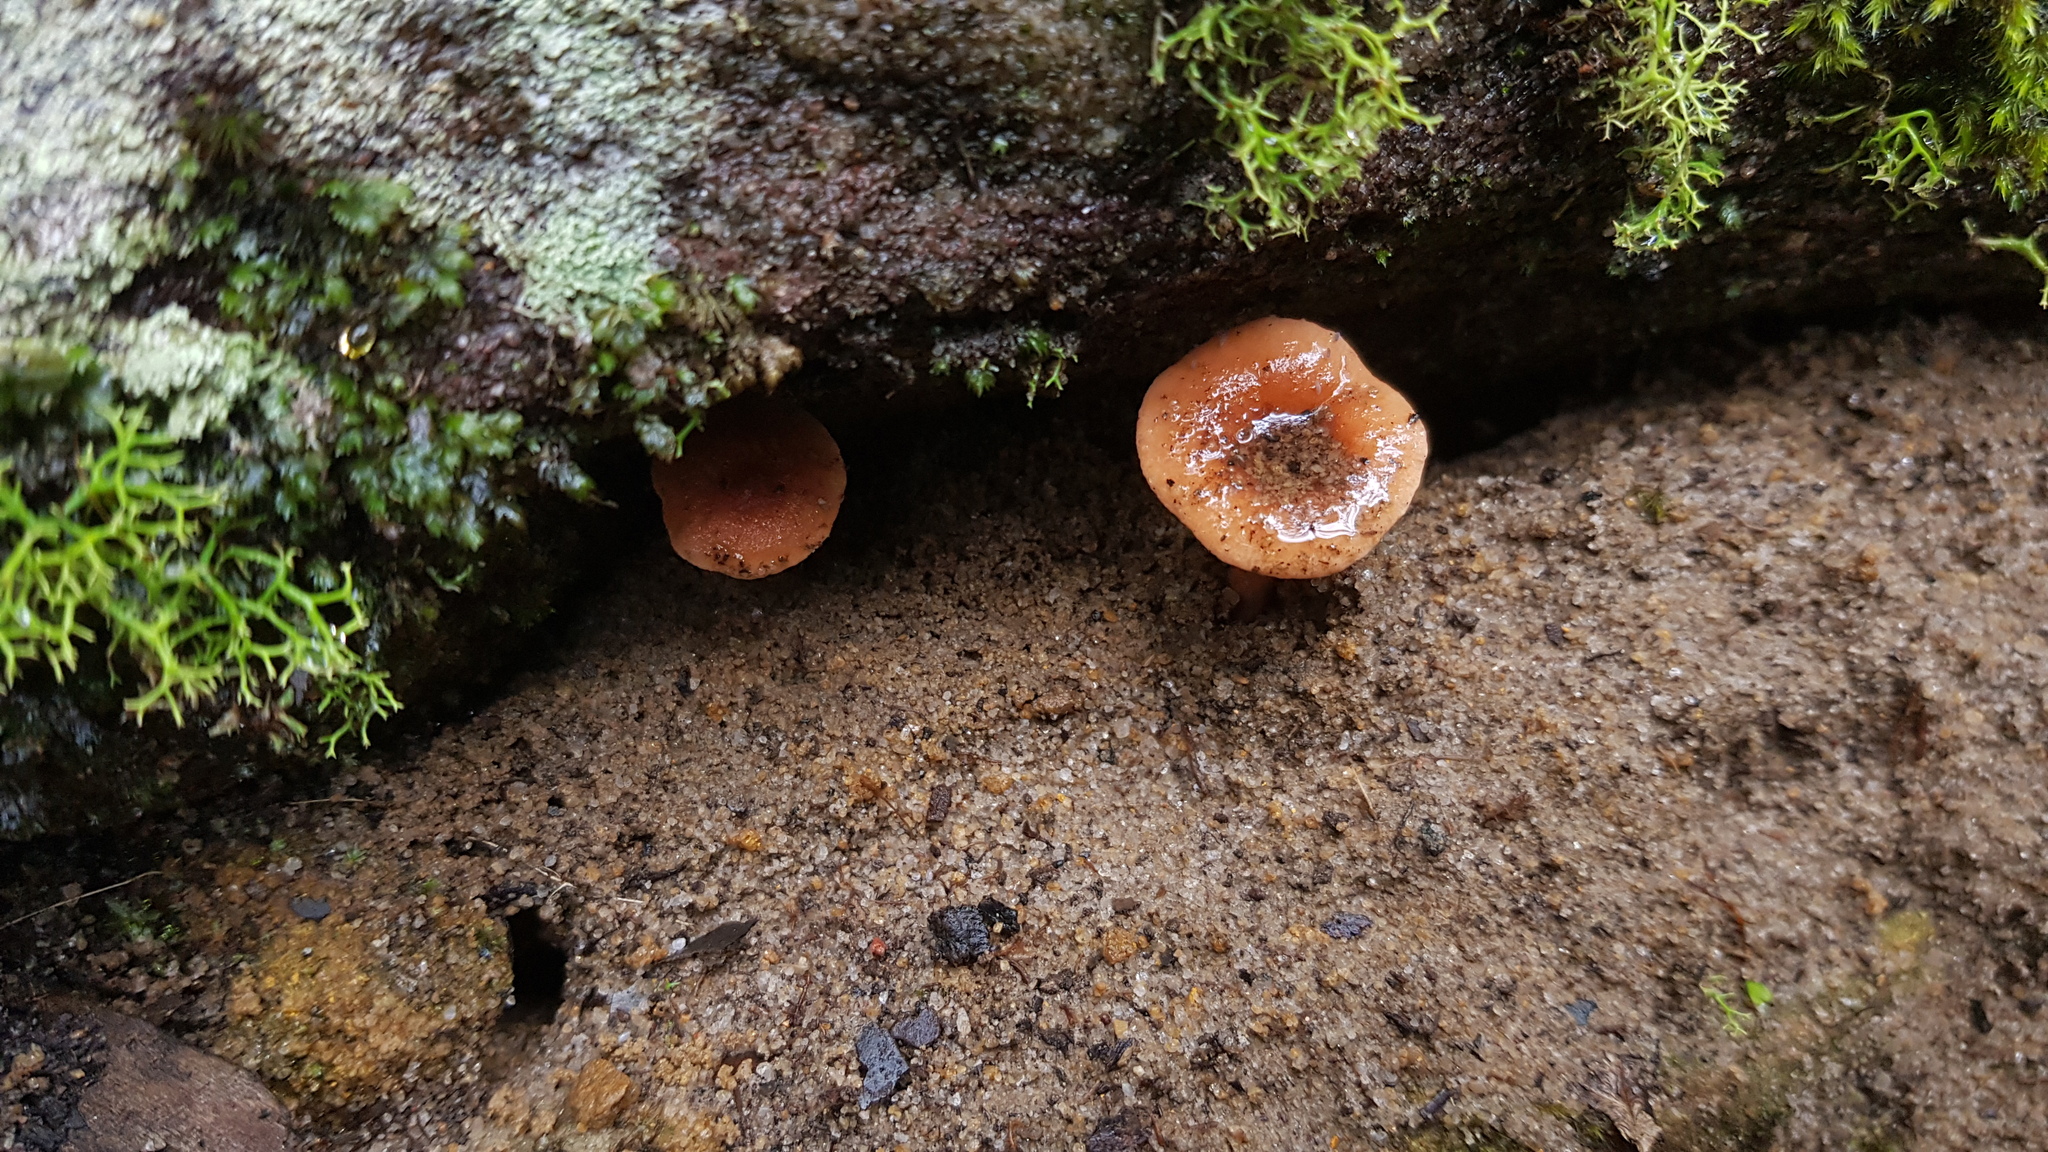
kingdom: Fungi
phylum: Basidiomycota
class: Agaricomycetes
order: Russulales
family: Russulaceae
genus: Lactarius
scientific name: Lactarius eucalypti
